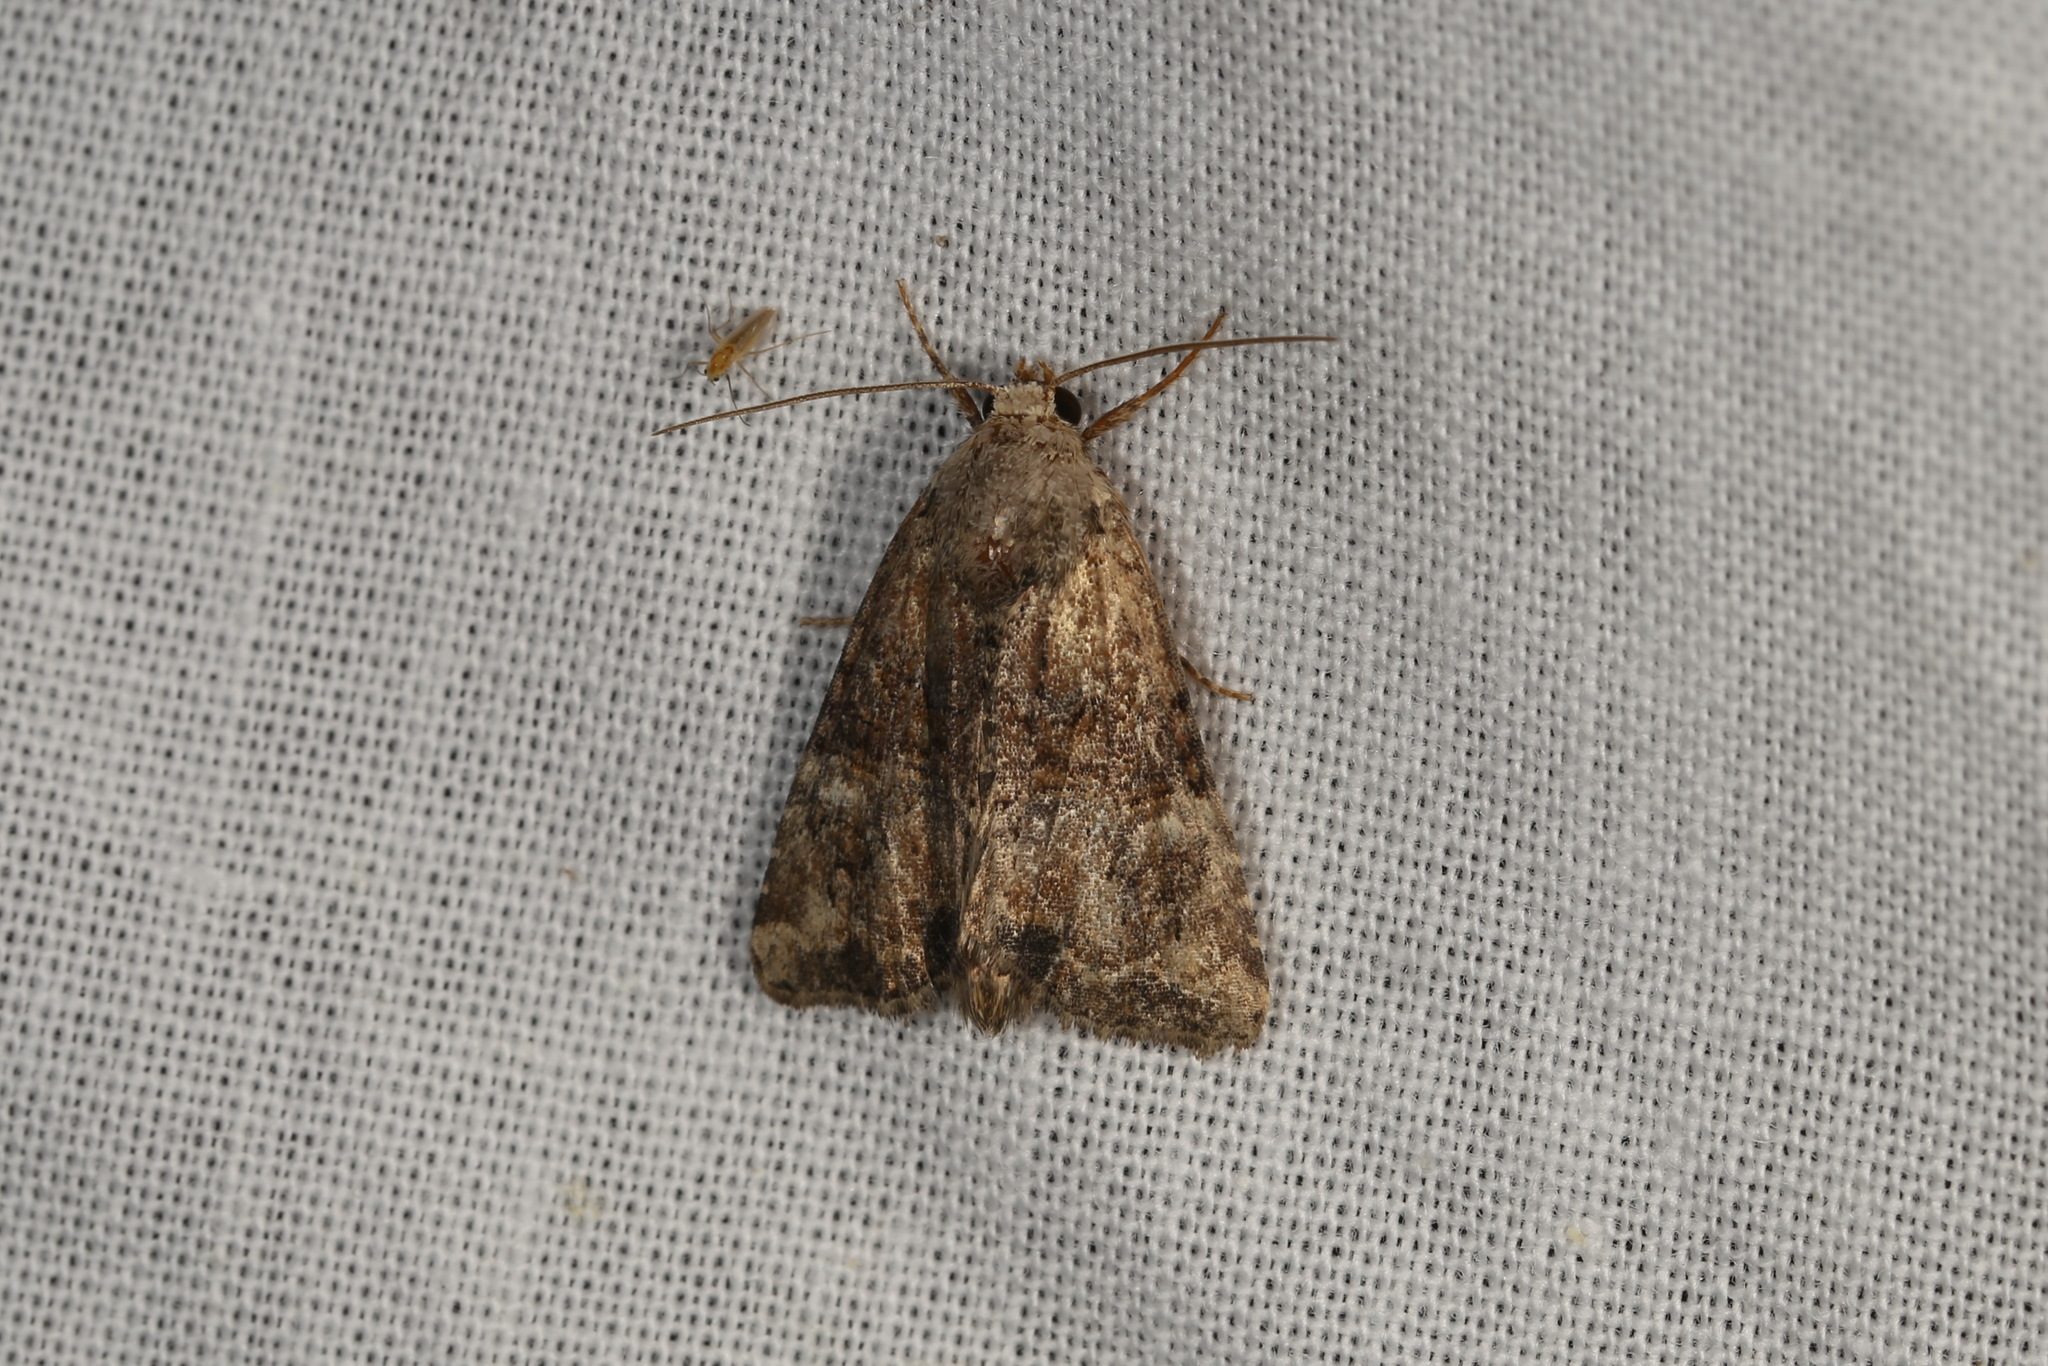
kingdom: Animalia
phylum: Arthropoda
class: Insecta
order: Lepidoptera
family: Noctuidae
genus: Mesoligia
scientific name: Mesoligia furuncula
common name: Cloaked minor
